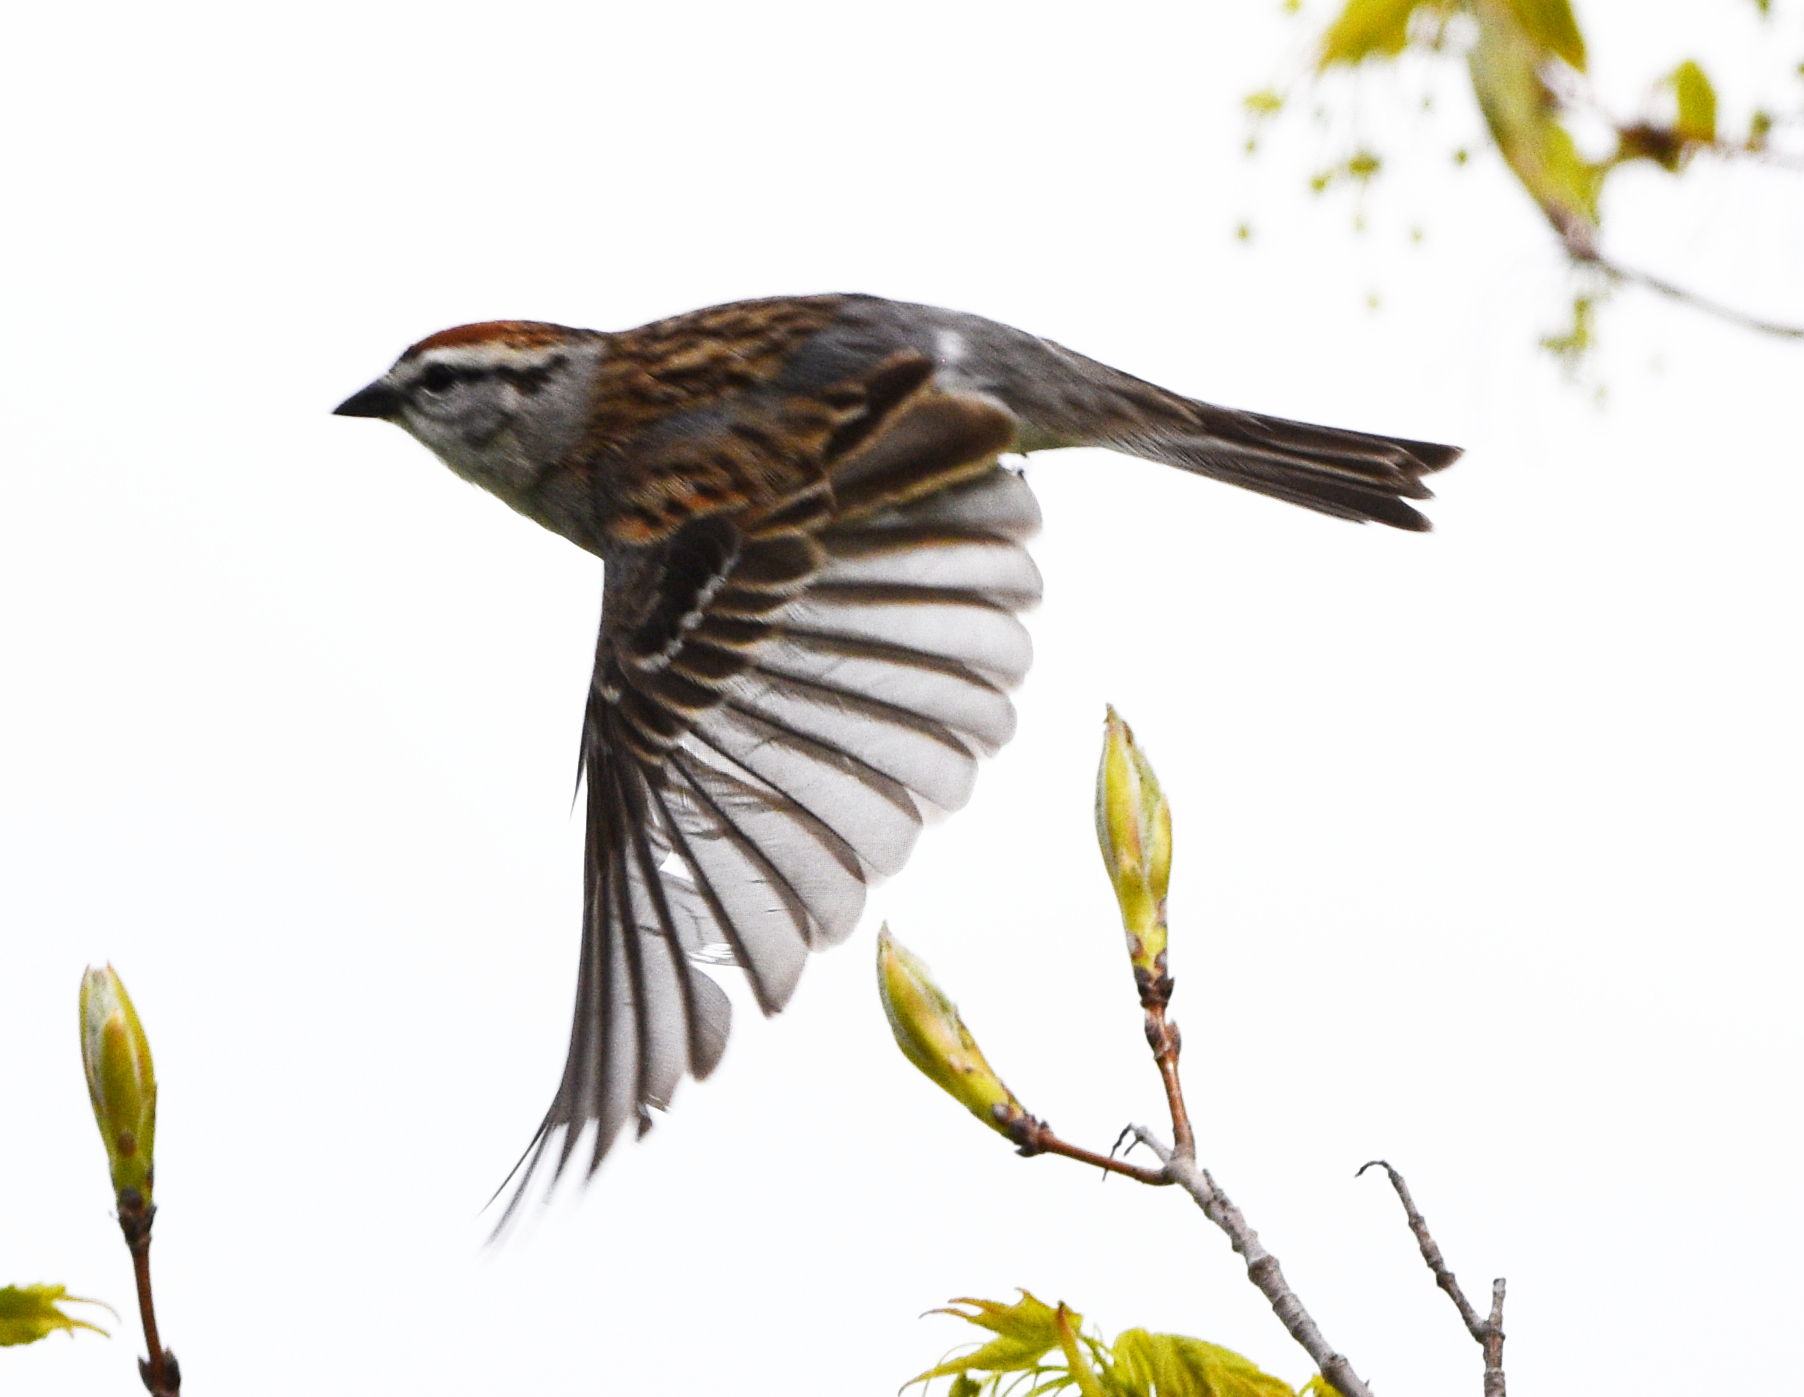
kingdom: Animalia
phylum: Chordata
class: Aves
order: Passeriformes
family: Passerellidae
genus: Spizella
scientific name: Spizella passerina
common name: Chipping sparrow
